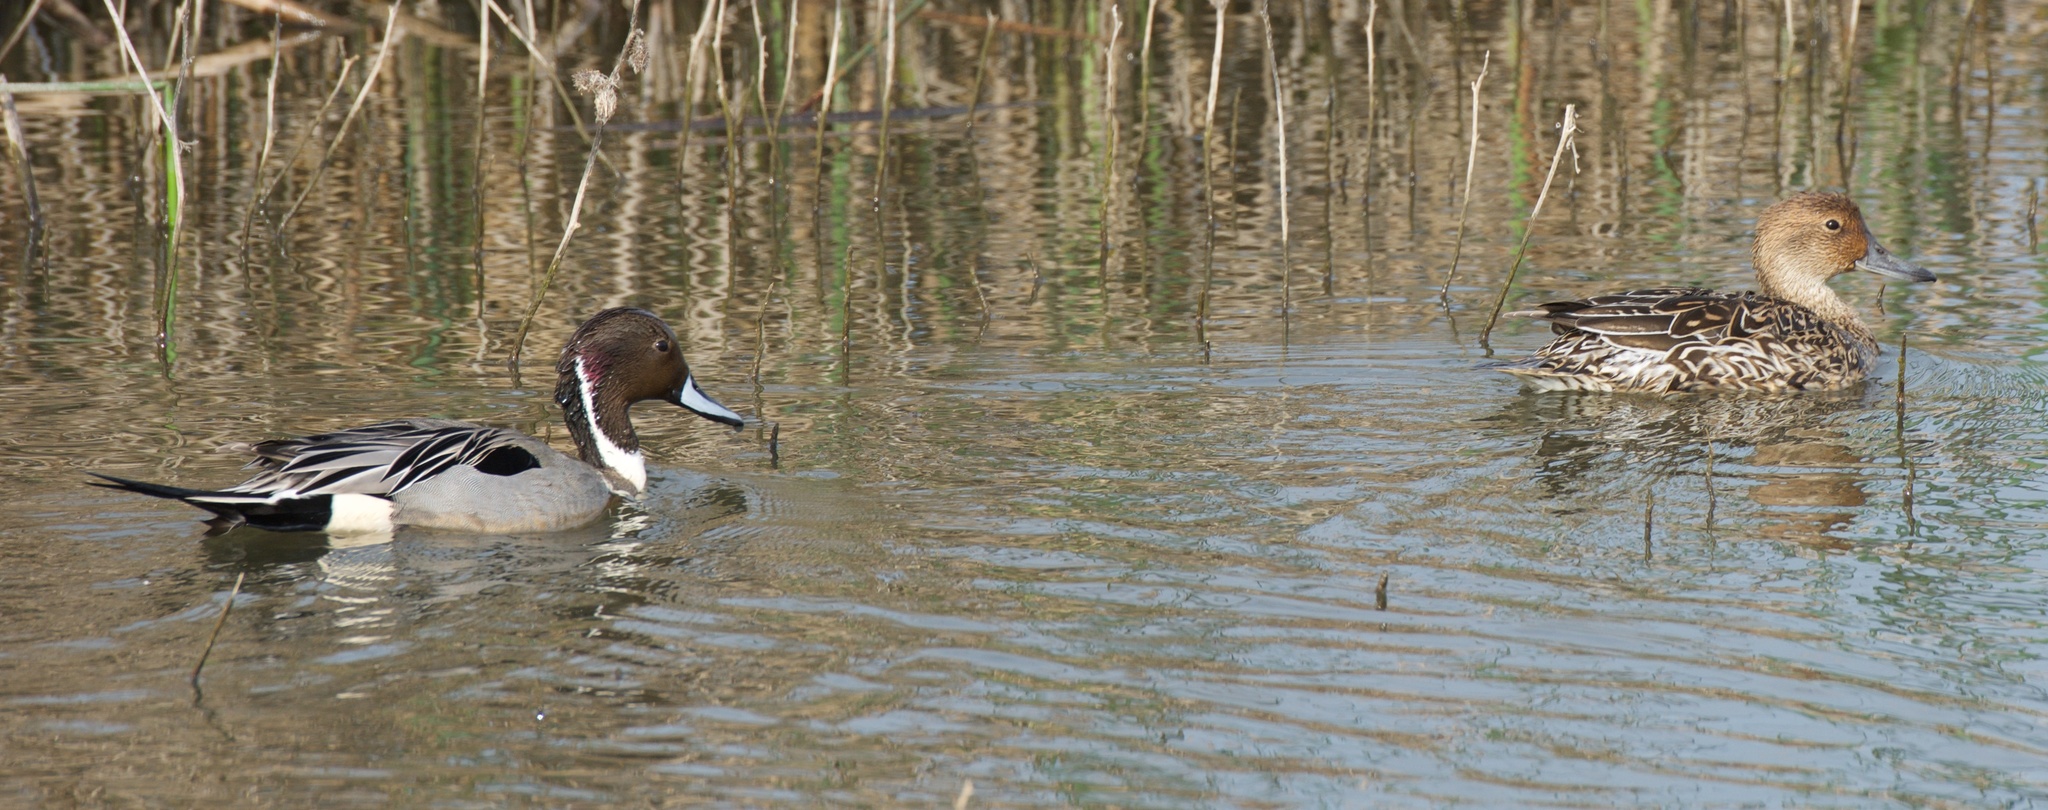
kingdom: Animalia
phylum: Chordata
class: Aves
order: Anseriformes
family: Anatidae
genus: Anas
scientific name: Anas acuta
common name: Northern pintail
